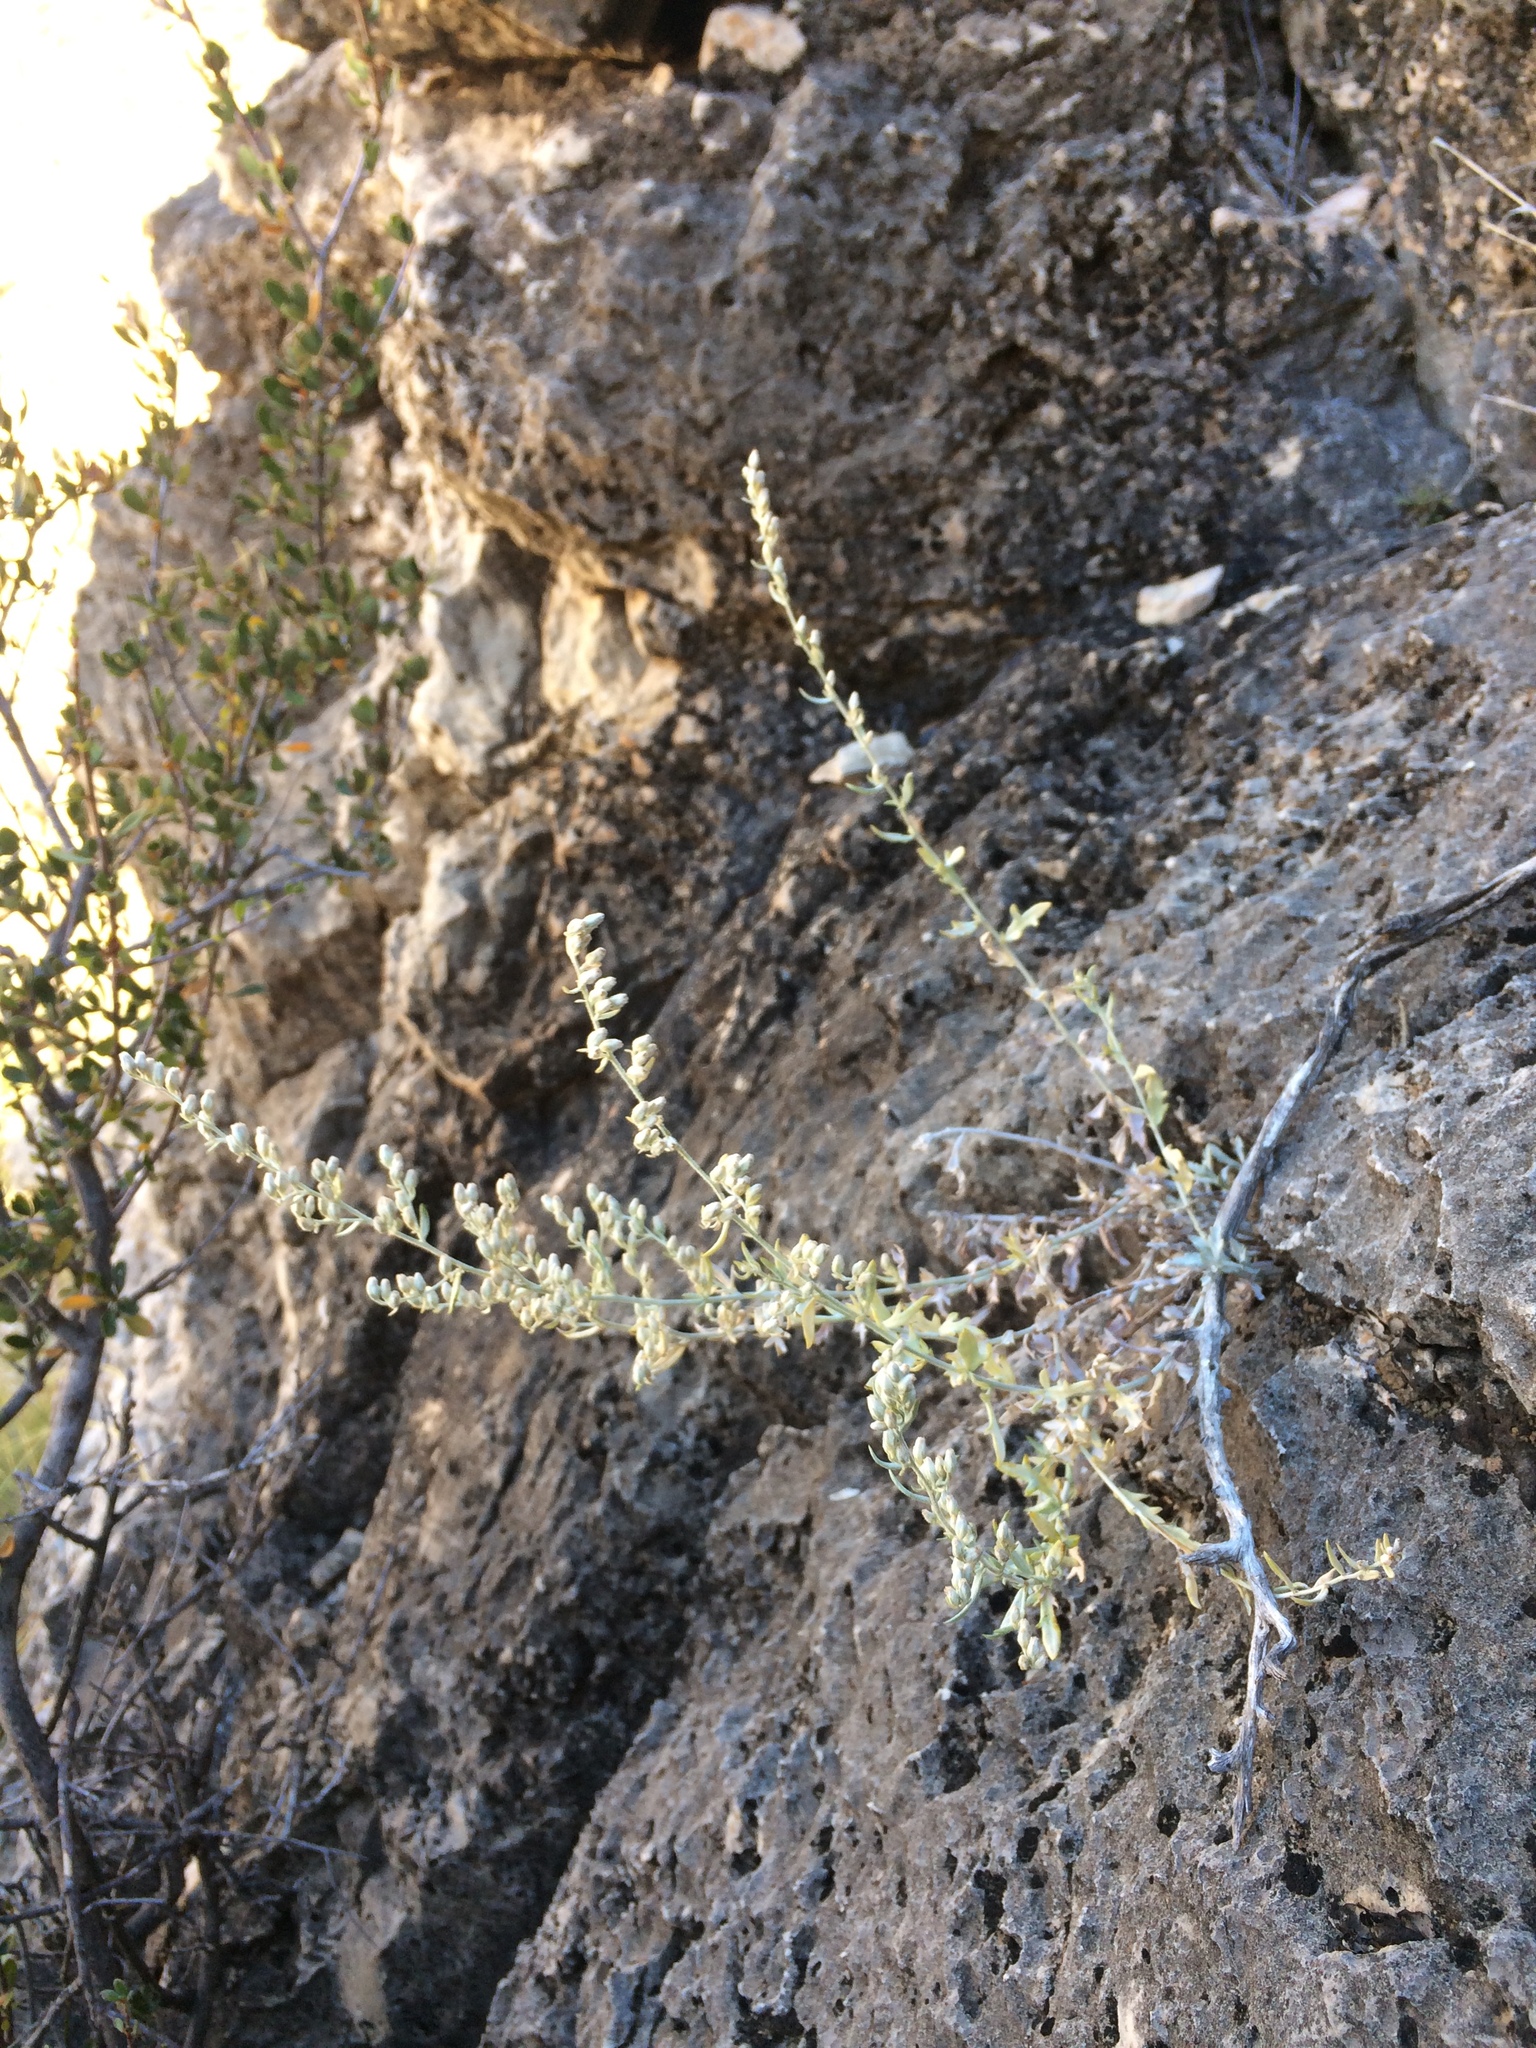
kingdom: Plantae
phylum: Tracheophyta
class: Magnoliopsida
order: Asterales
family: Asteraceae
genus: Artemisia
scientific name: Artemisia ludoviciana
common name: Western mugwort
